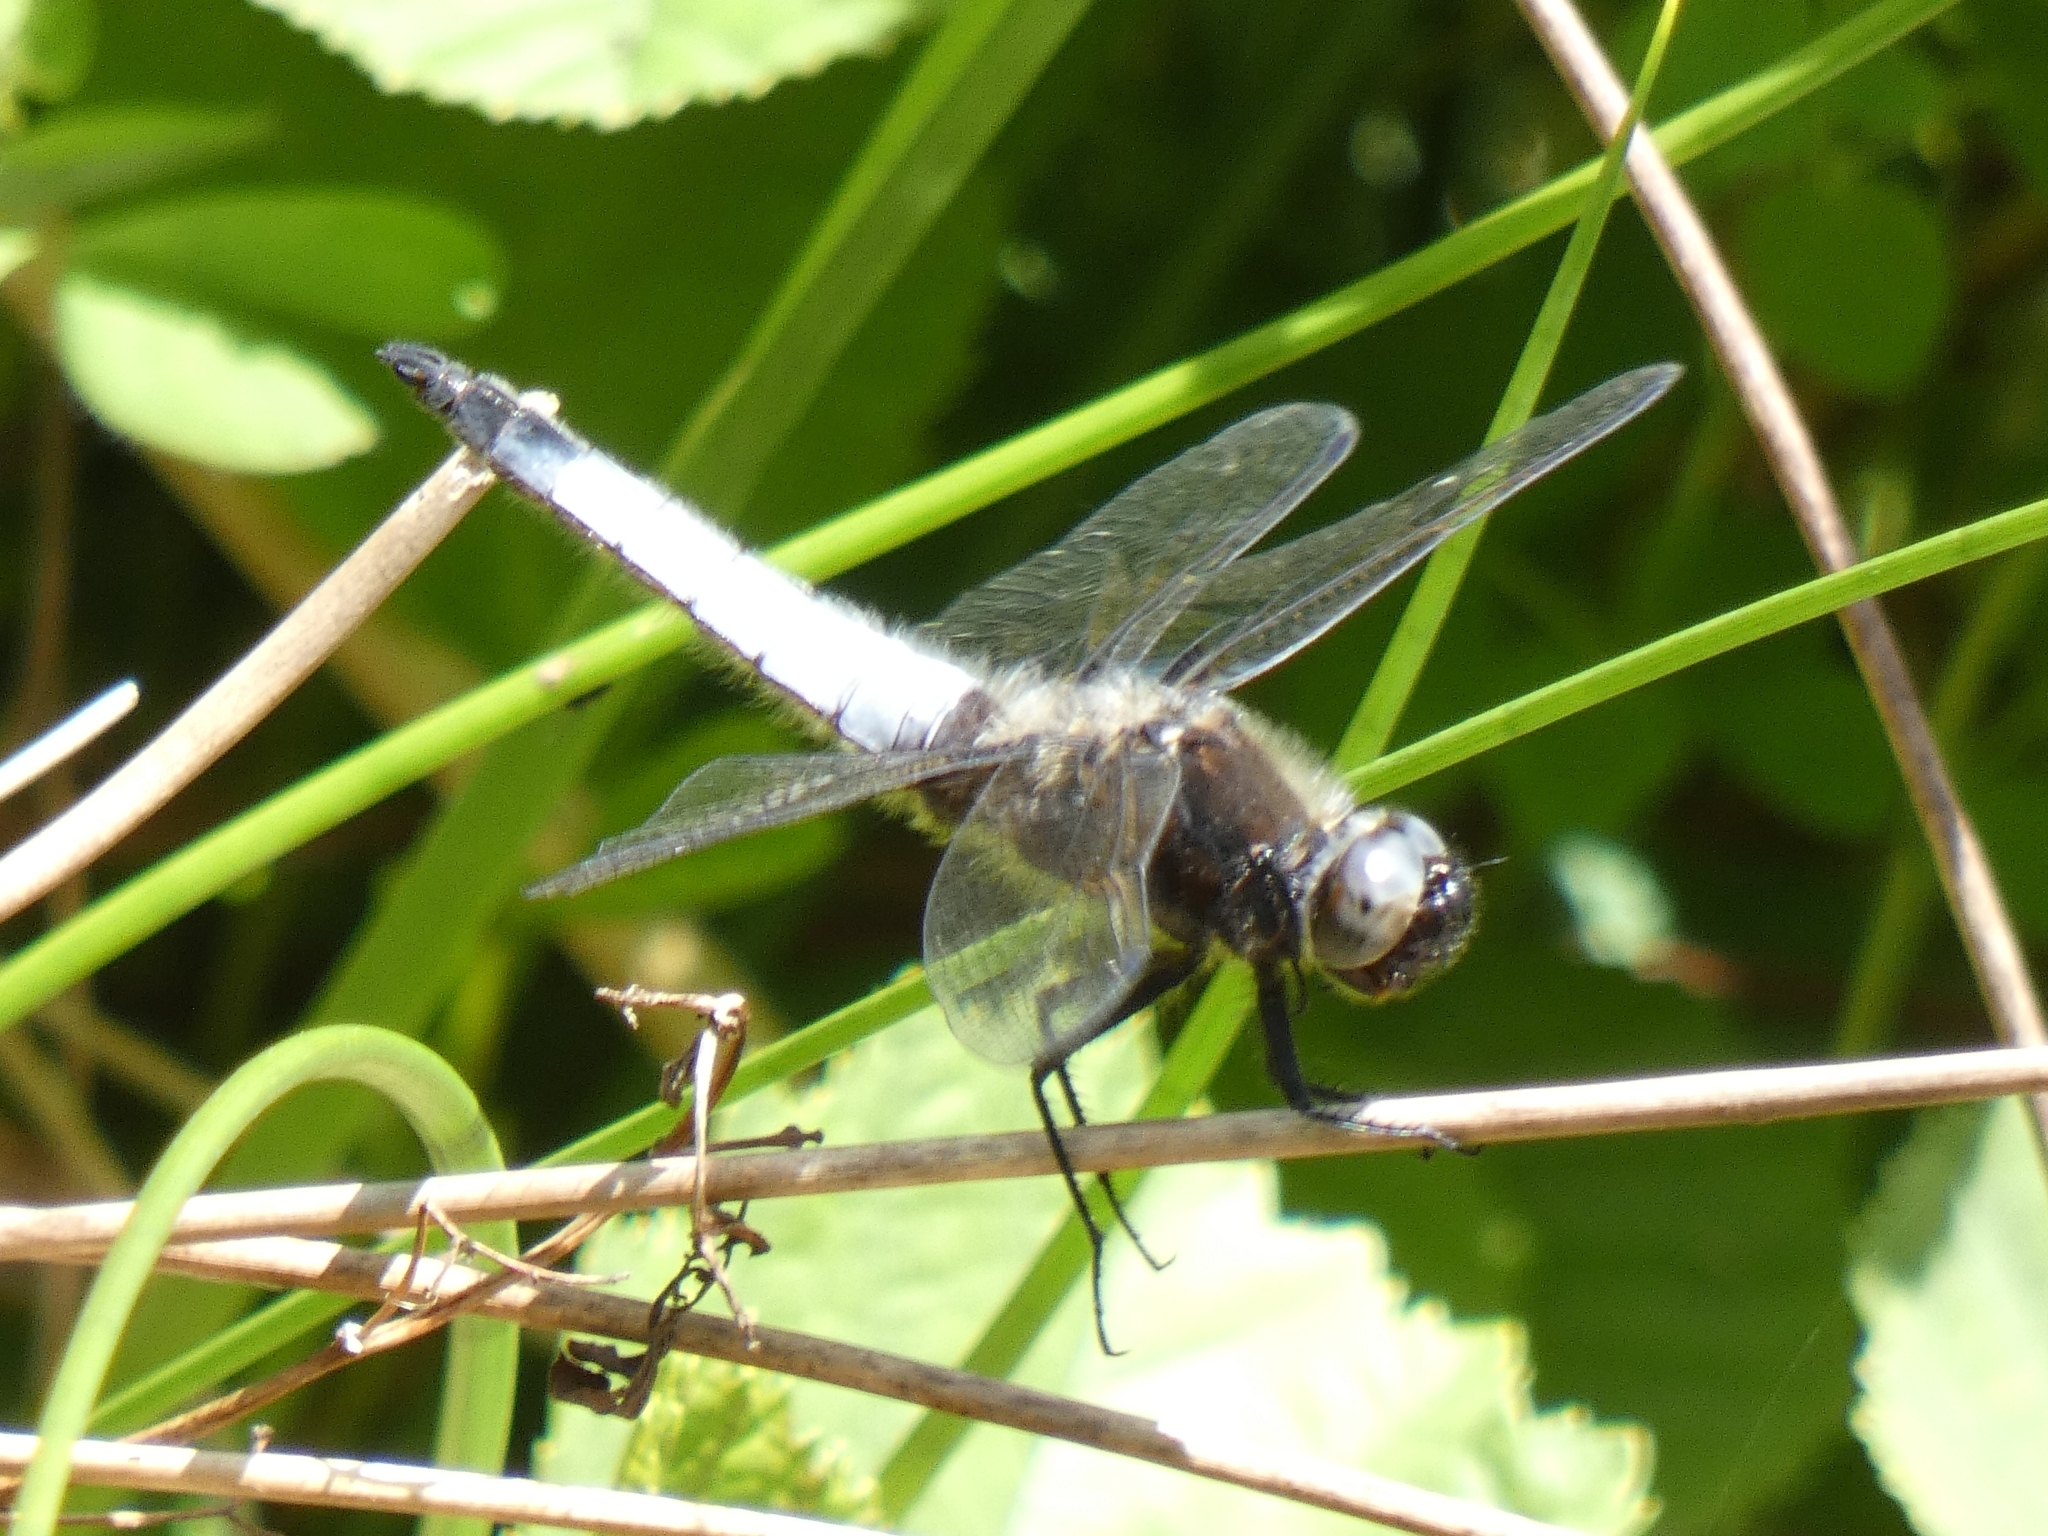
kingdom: Animalia
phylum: Arthropoda
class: Insecta
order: Odonata
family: Libellulidae
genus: Libellula
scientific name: Libellula fulva
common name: Blue chaser
